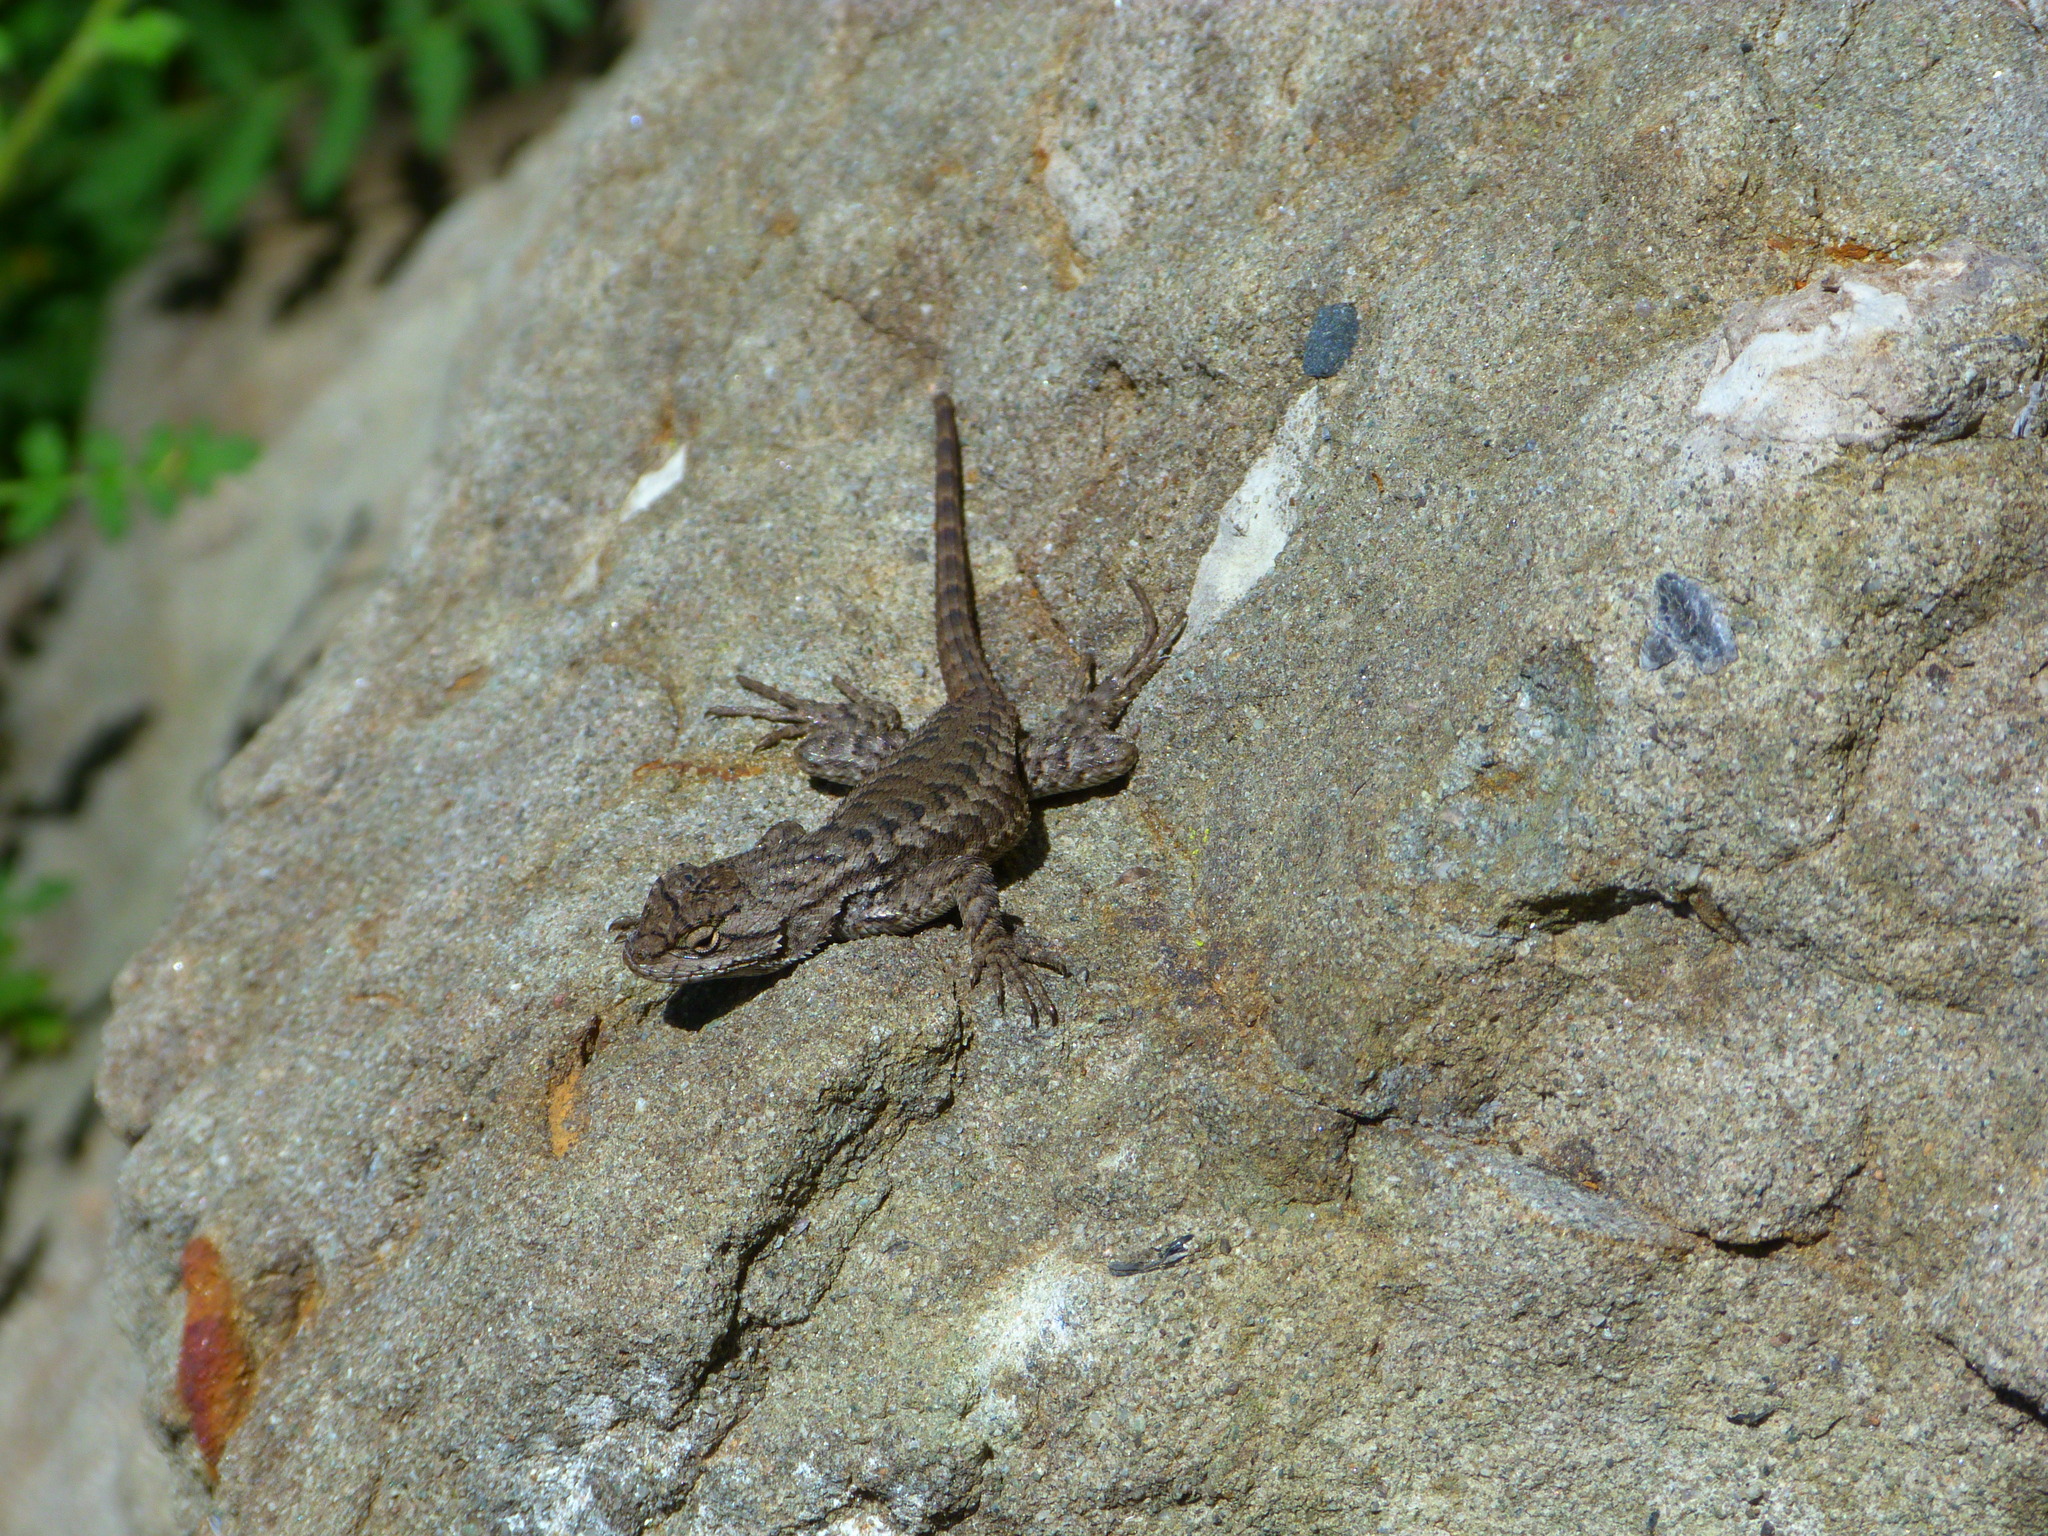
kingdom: Animalia
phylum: Chordata
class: Squamata
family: Phrynosomatidae
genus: Sceloporus
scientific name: Sceloporus occidentalis
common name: Western fence lizard
